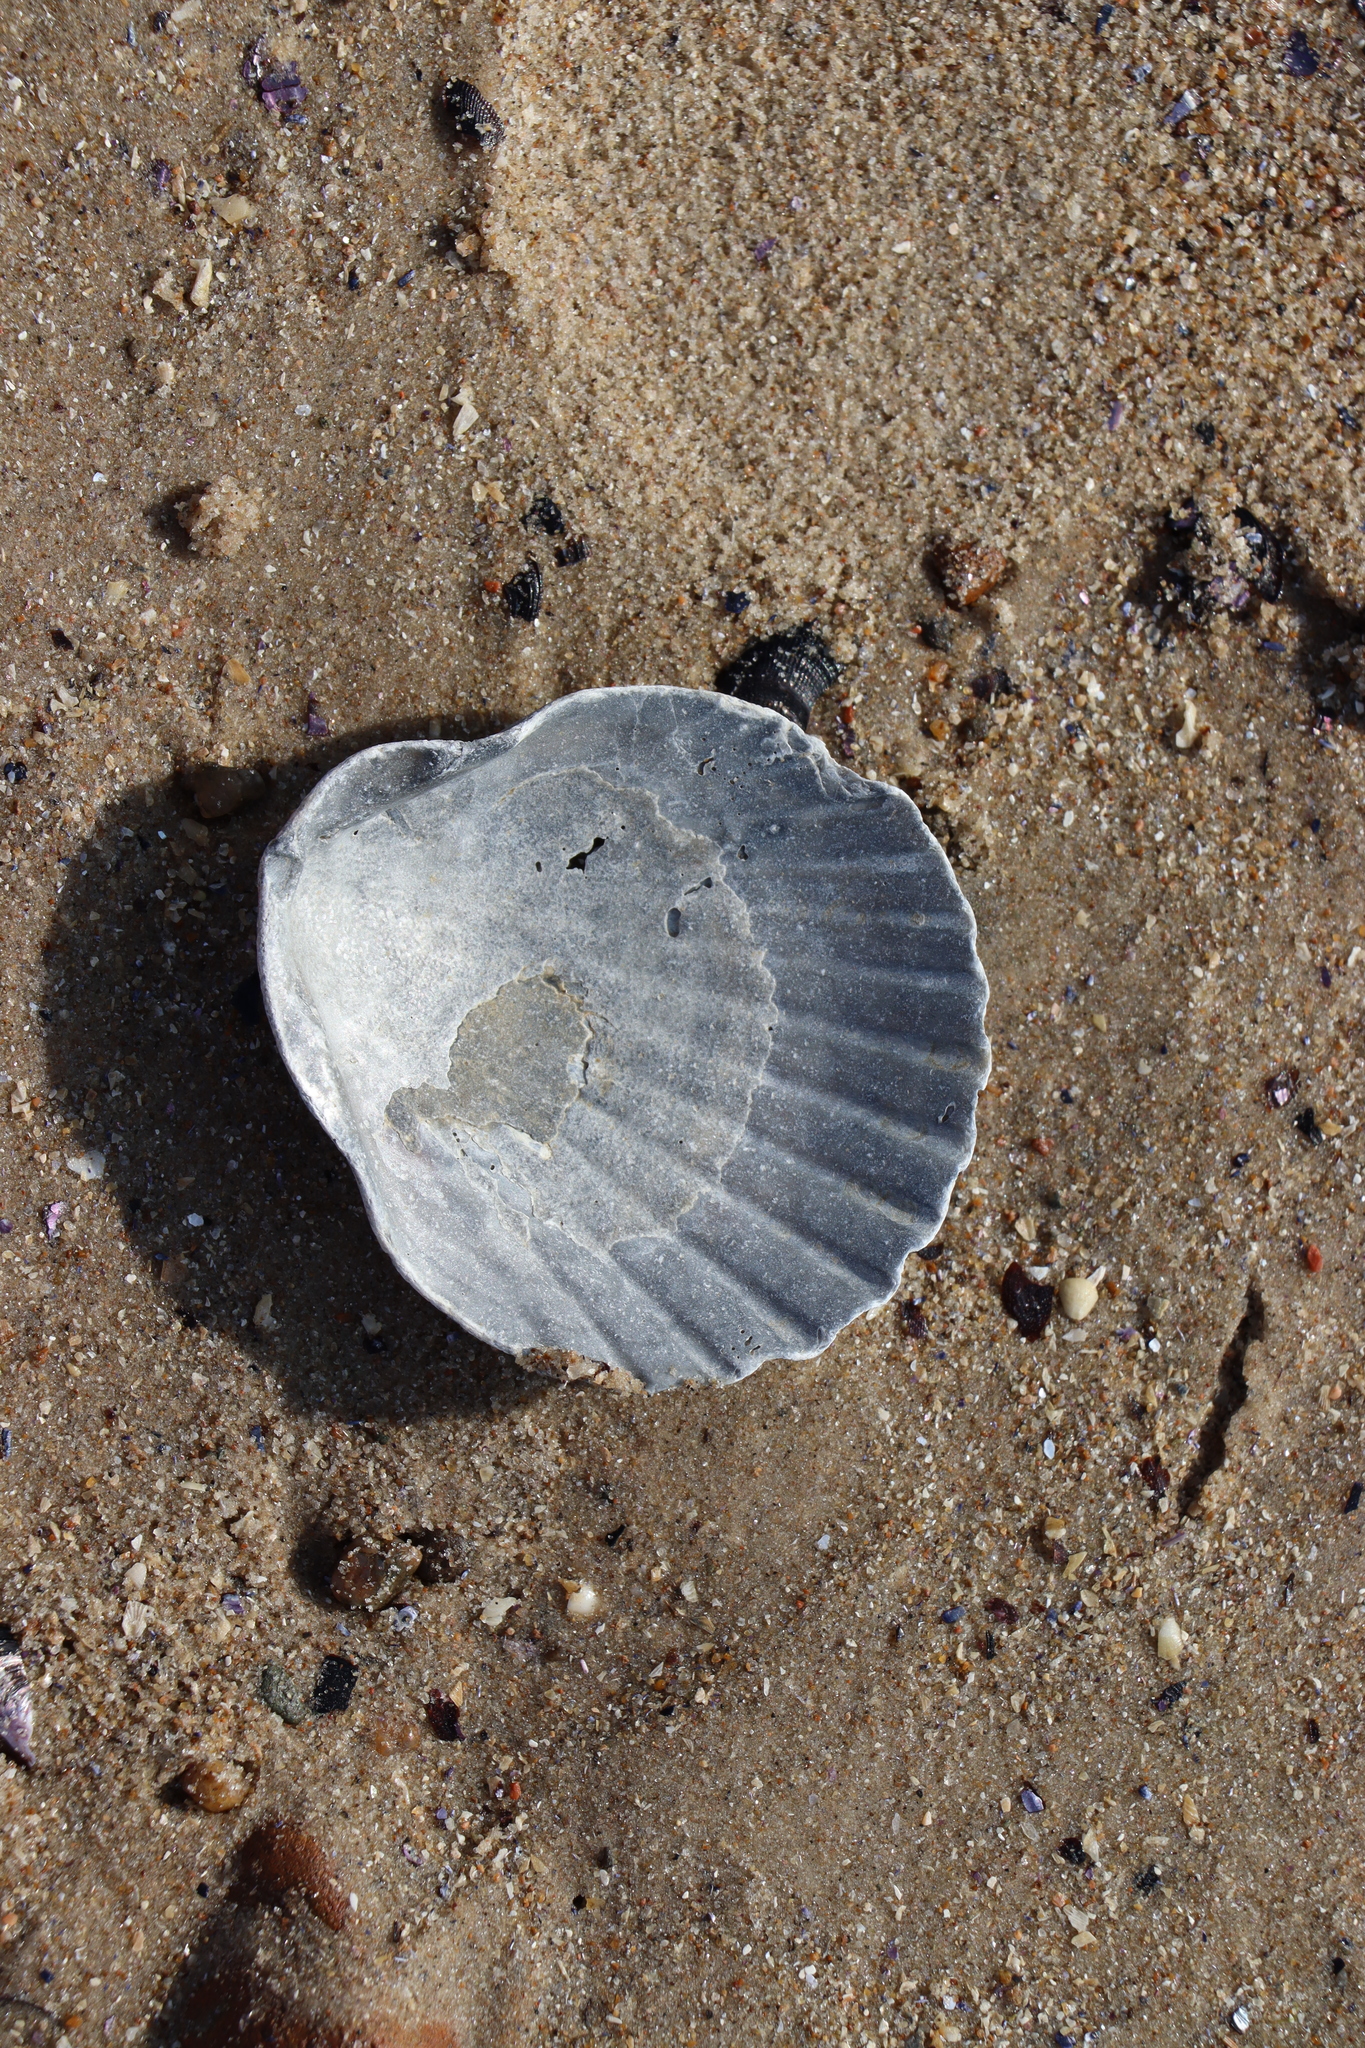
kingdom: Animalia
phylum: Mollusca
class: Bivalvia
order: Pectinida
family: Pectinidae
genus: Aequipecten
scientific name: Aequipecten tehuelchus
